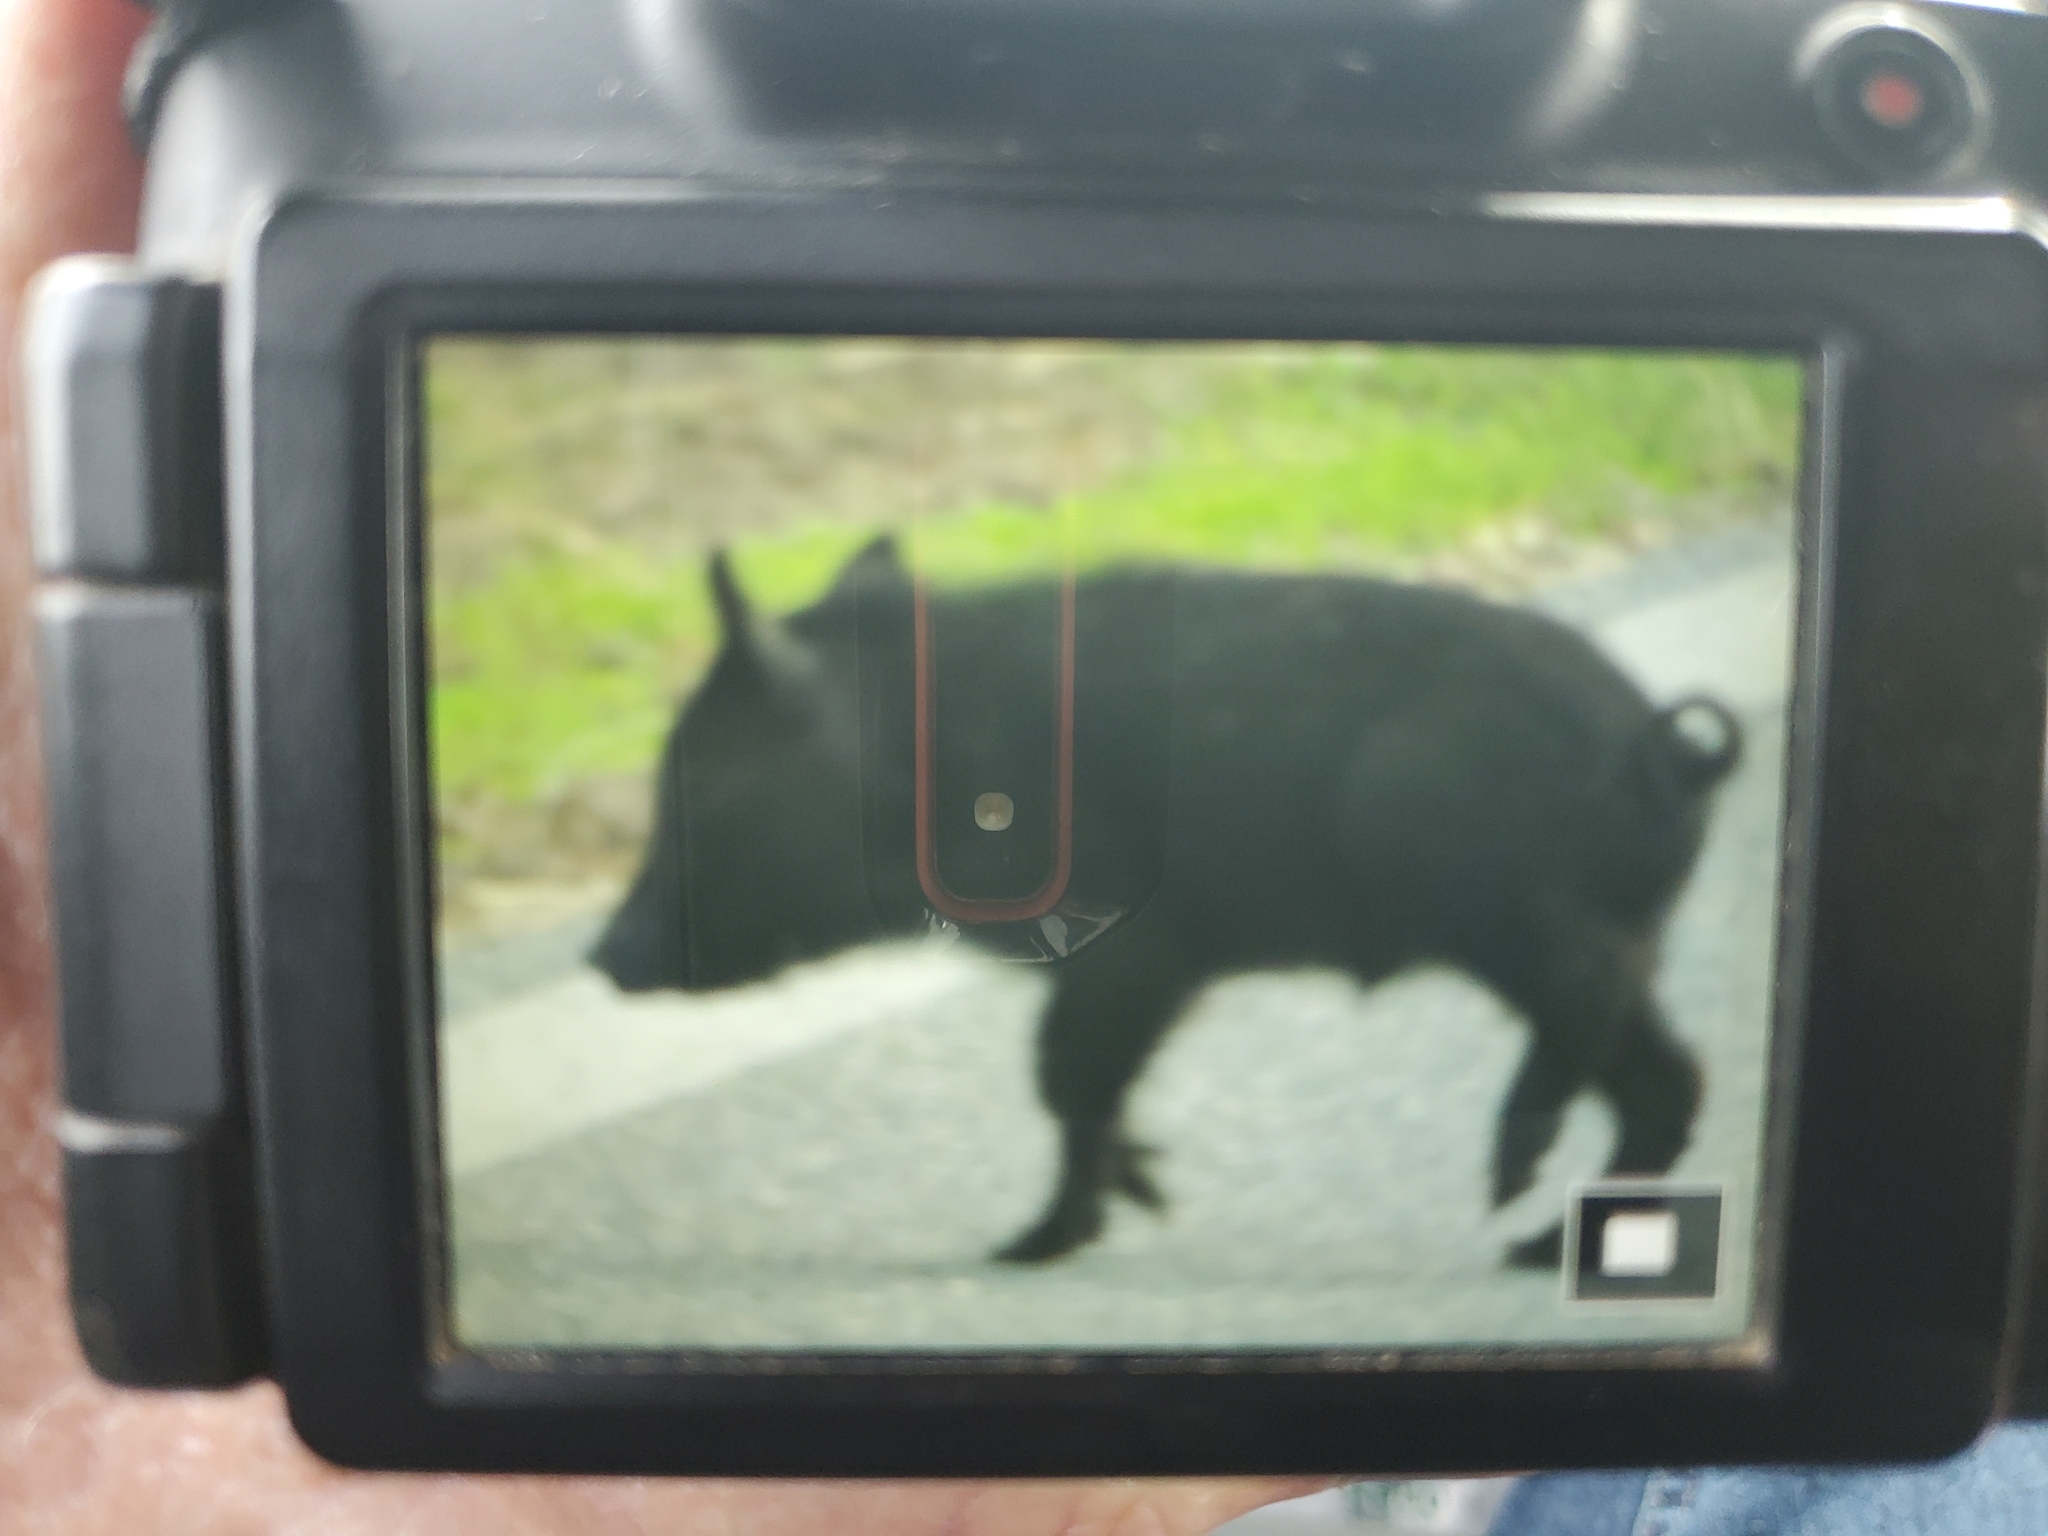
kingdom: Animalia
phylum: Chordata
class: Mammalia
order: Artiodactyla
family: Suidae
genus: Sus
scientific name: Sus scrofa
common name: Wild boar
